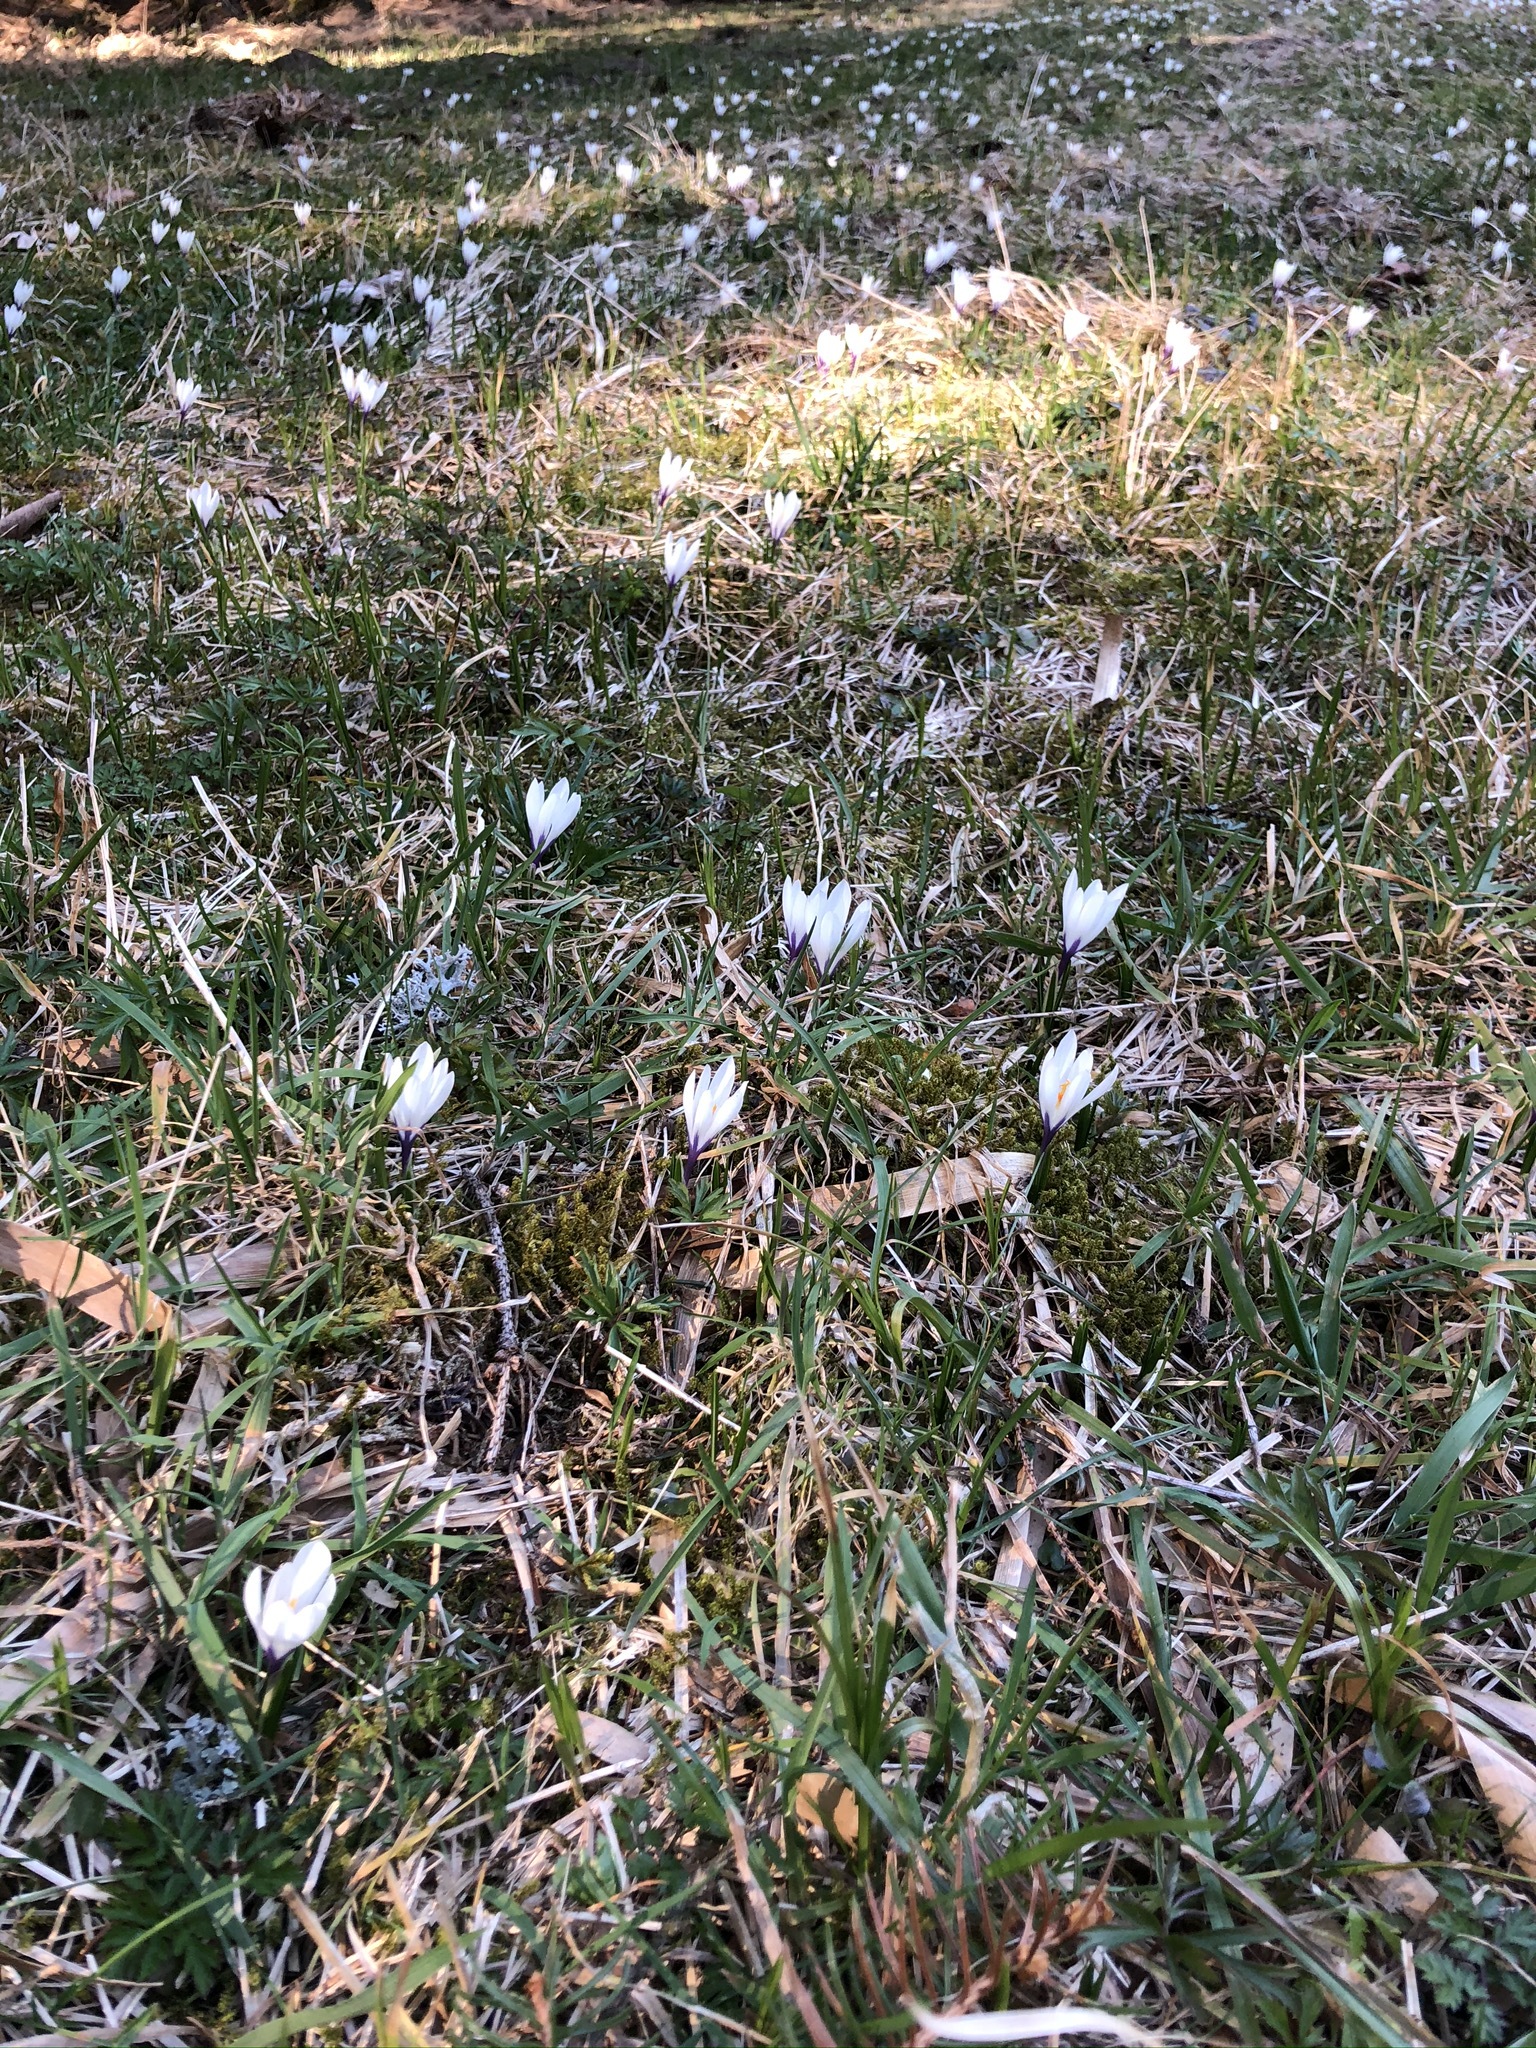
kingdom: Plantae
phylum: Tracheophyta
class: Liliopsida
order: Asparagales
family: Iridaceae
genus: Crocus
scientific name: Crocus vernus
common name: Spring crocus
